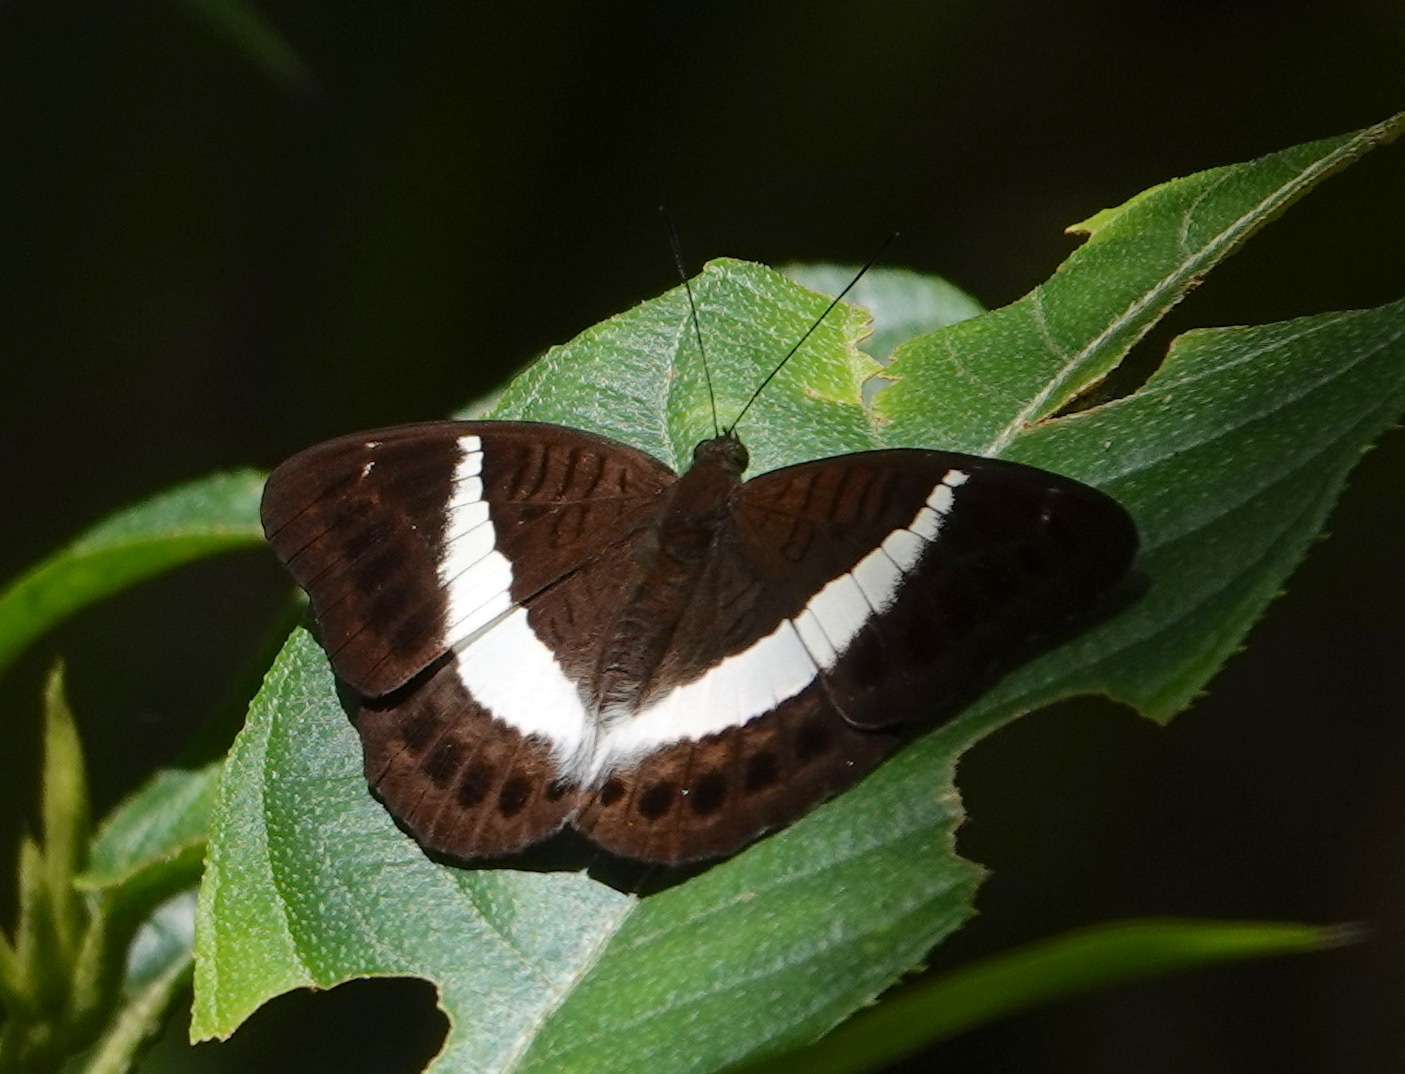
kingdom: Animalia
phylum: Arthropoda
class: Insecta
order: Lepidoptera
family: Nymphalidae
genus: Tanaecia
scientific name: Tanaecia amisa
